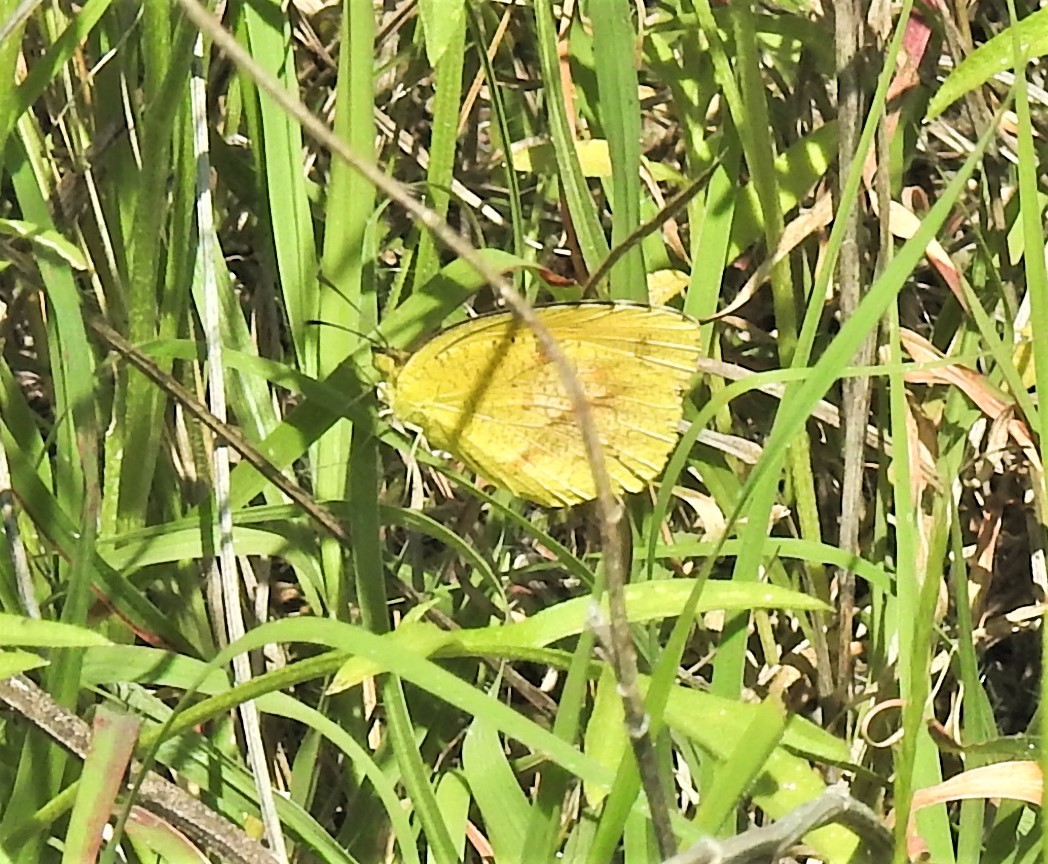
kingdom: Animalia
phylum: Arthropoda
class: Insecta
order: Lepidoptera
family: Pieridae
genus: Abaeis
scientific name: Abaeis nicippe
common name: Sleepy orange
